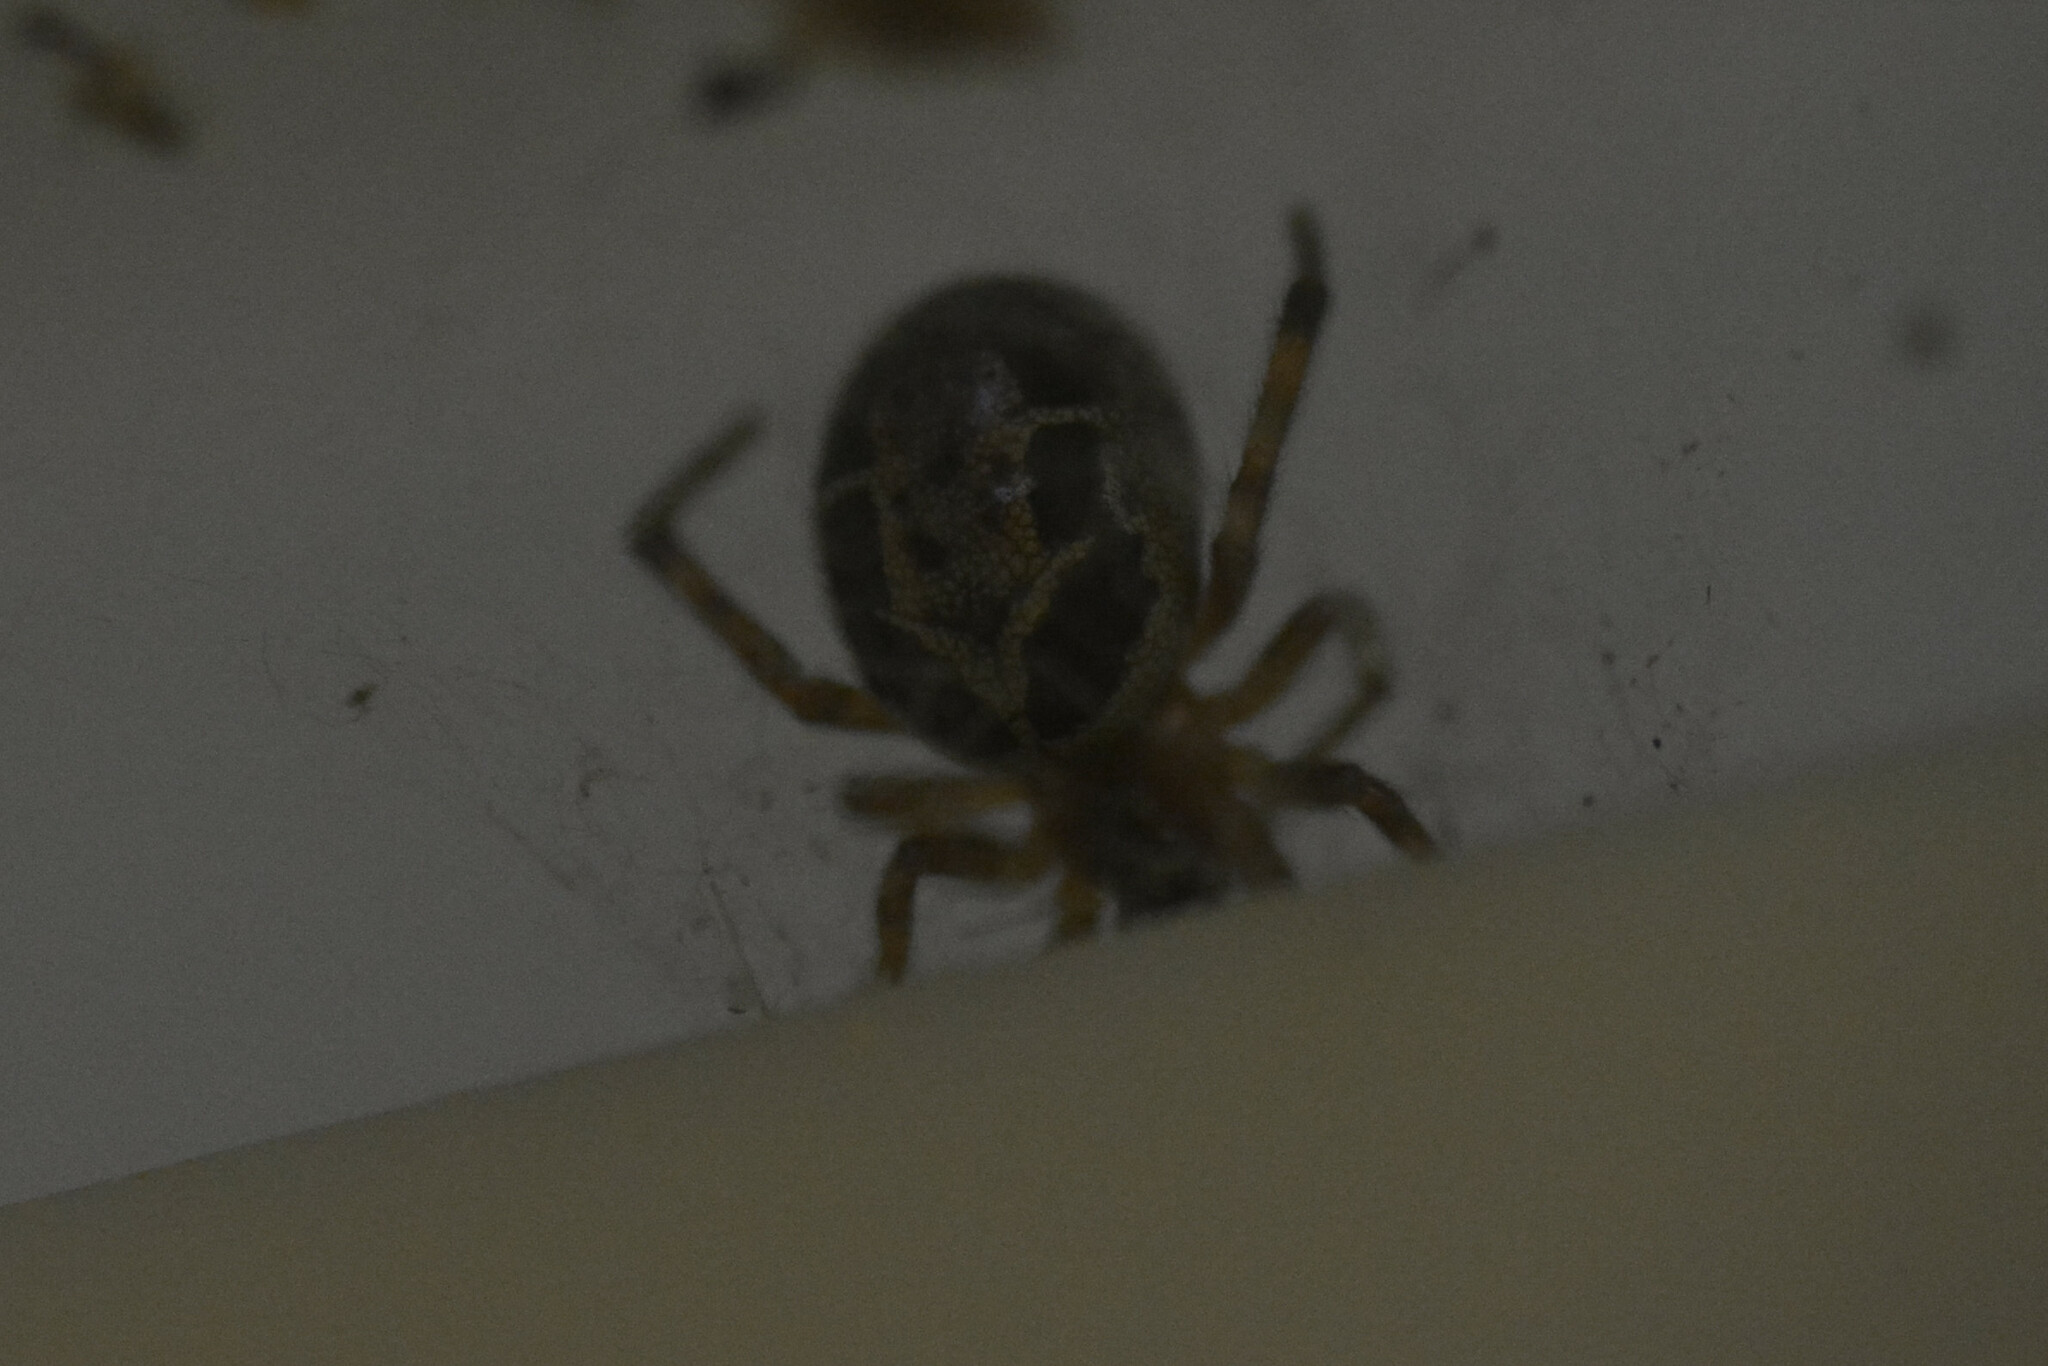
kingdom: Animalia
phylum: Arthropoda
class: Arachnida
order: Araneae
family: Theridiidae
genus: Steatoda
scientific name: Steatoda nobilis
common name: Cobweb weaver
